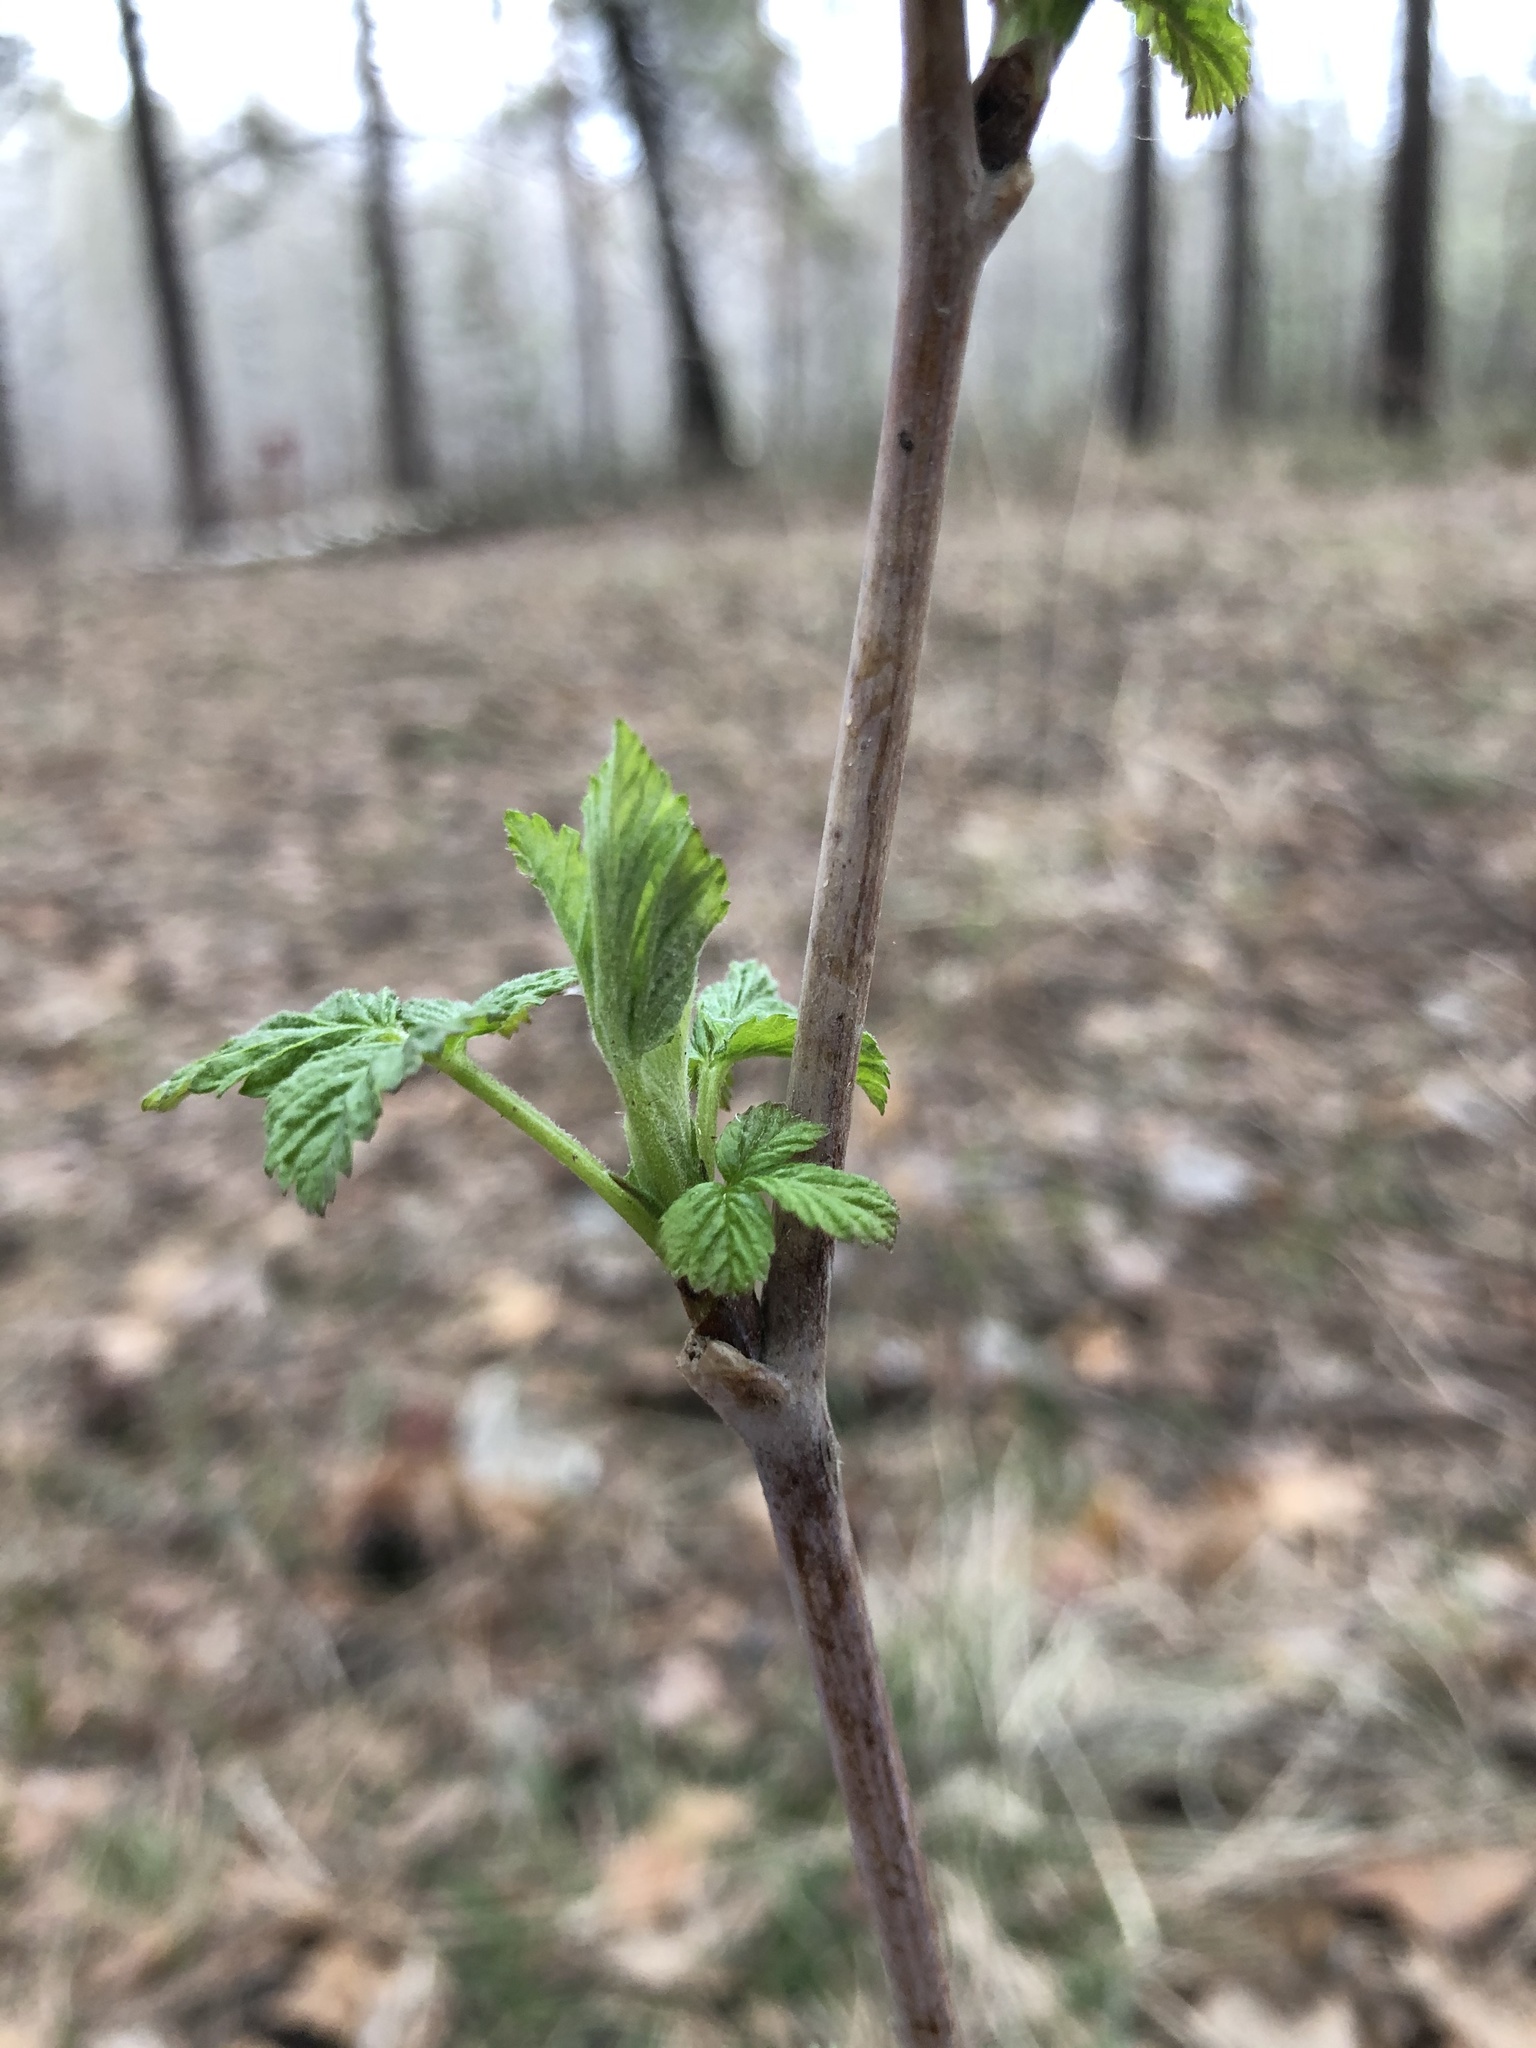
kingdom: Plantae
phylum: Tracheophyta
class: Magnoliopsida
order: Rosales
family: Rosaceae
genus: Rubus
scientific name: Rubus idaeus
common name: Raspberry
